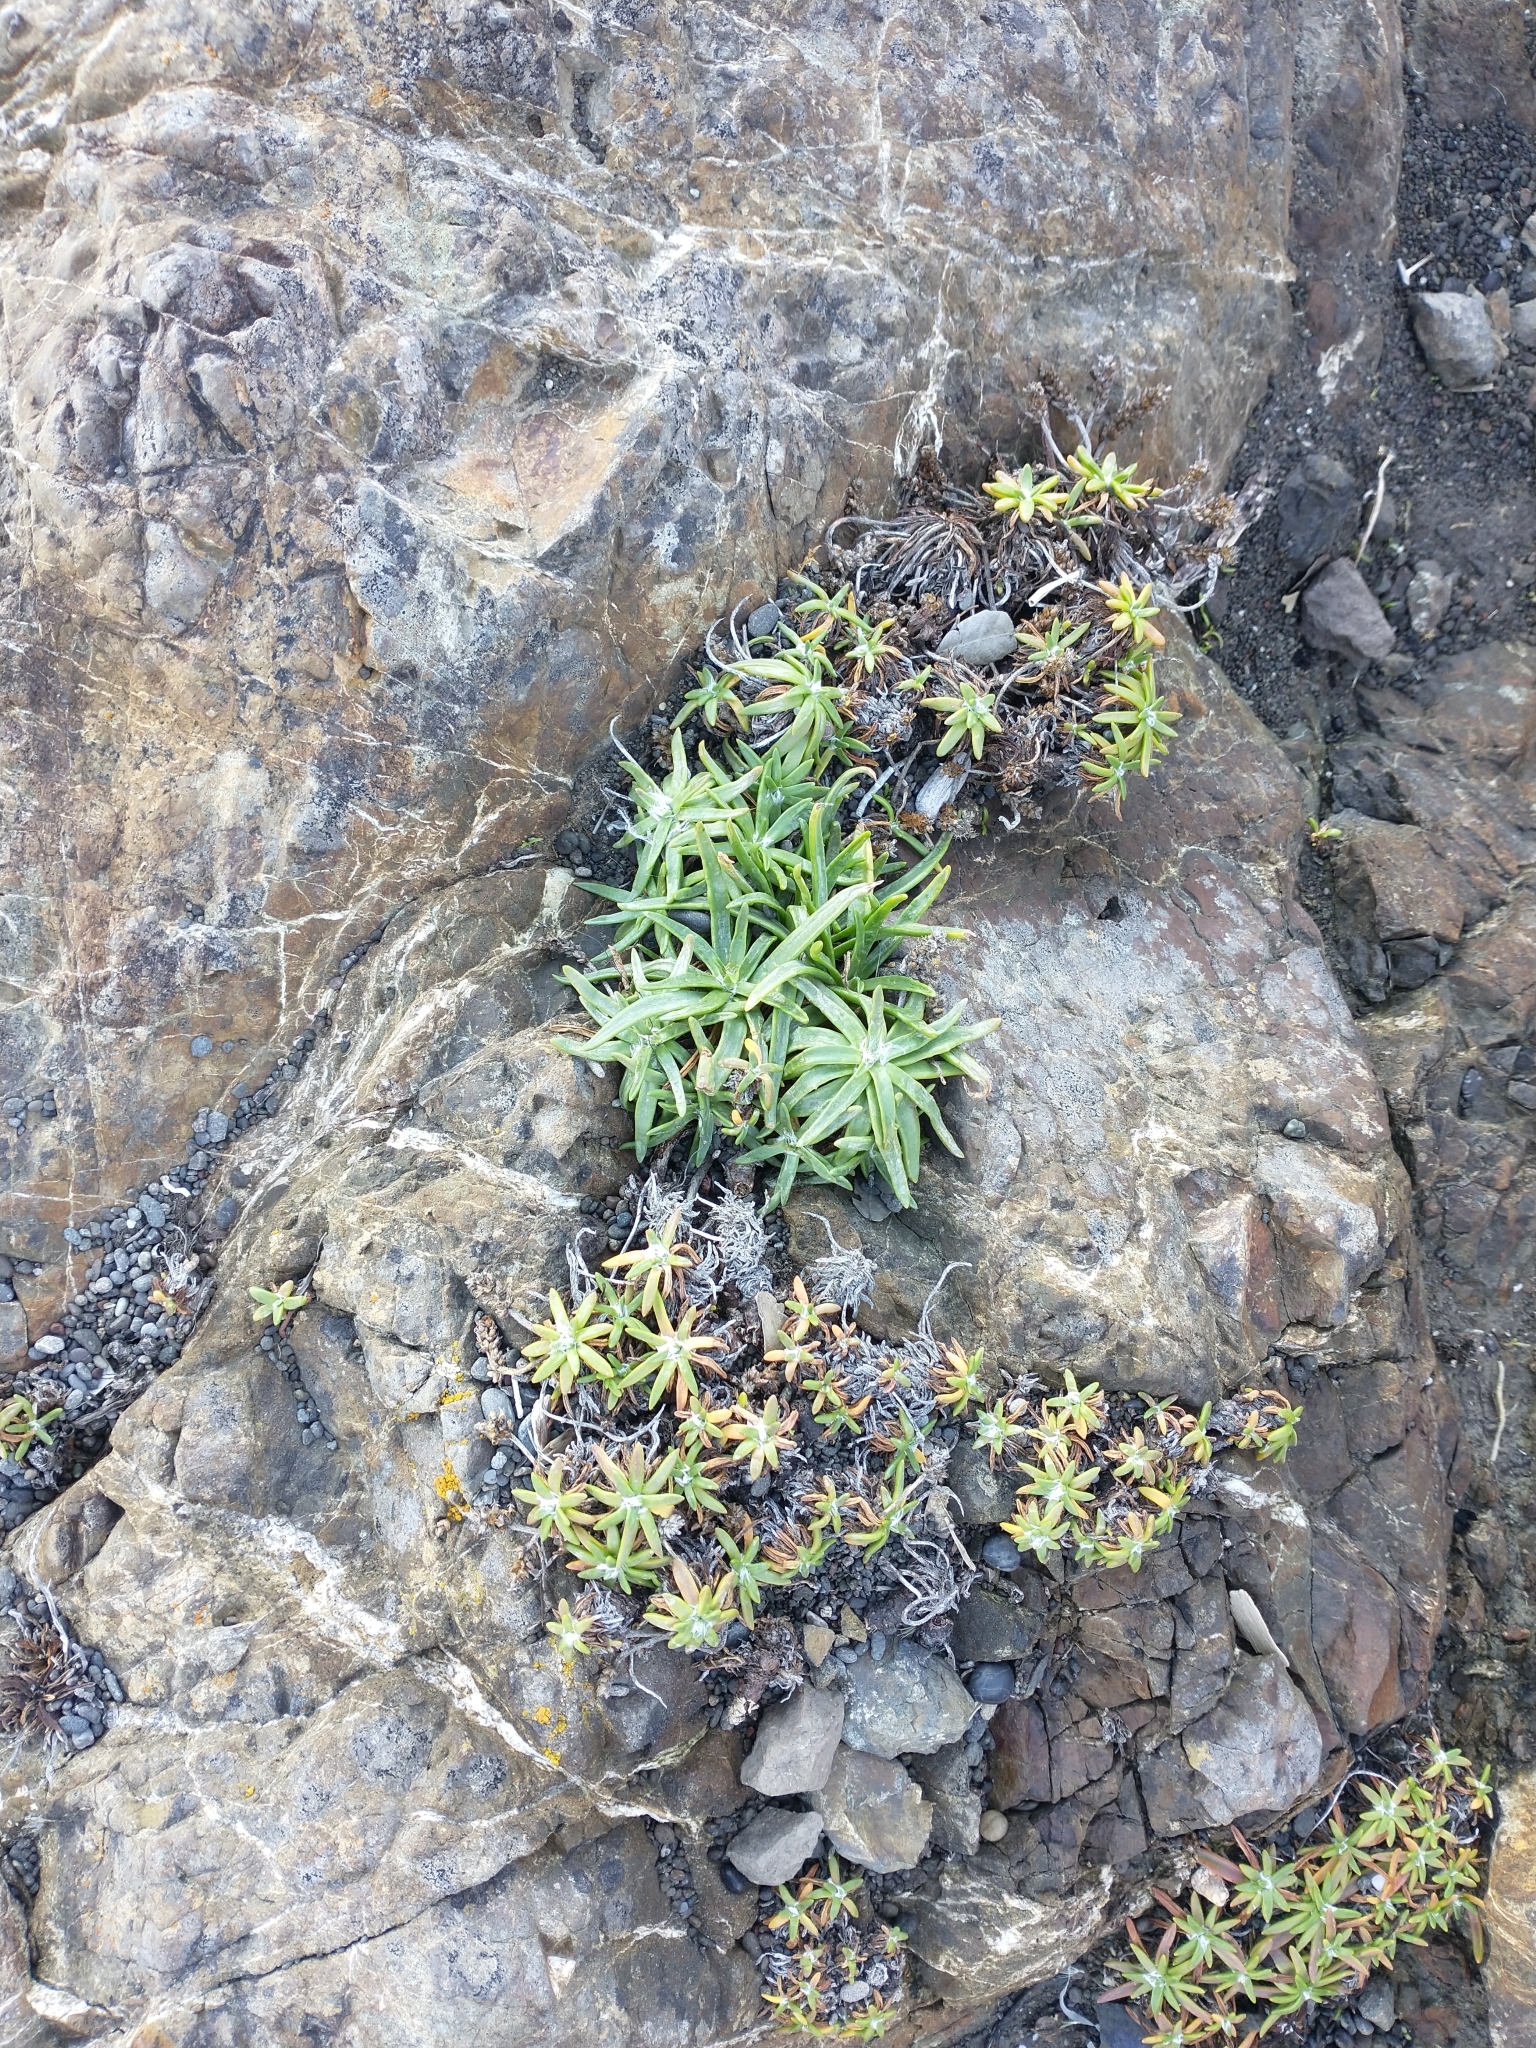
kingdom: Plantae
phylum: Tracheophyta
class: Magnoliopsida
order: Lamiales
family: Plantaginaceae
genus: Plantago
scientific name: Plantago maritima
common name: Sea plantain
